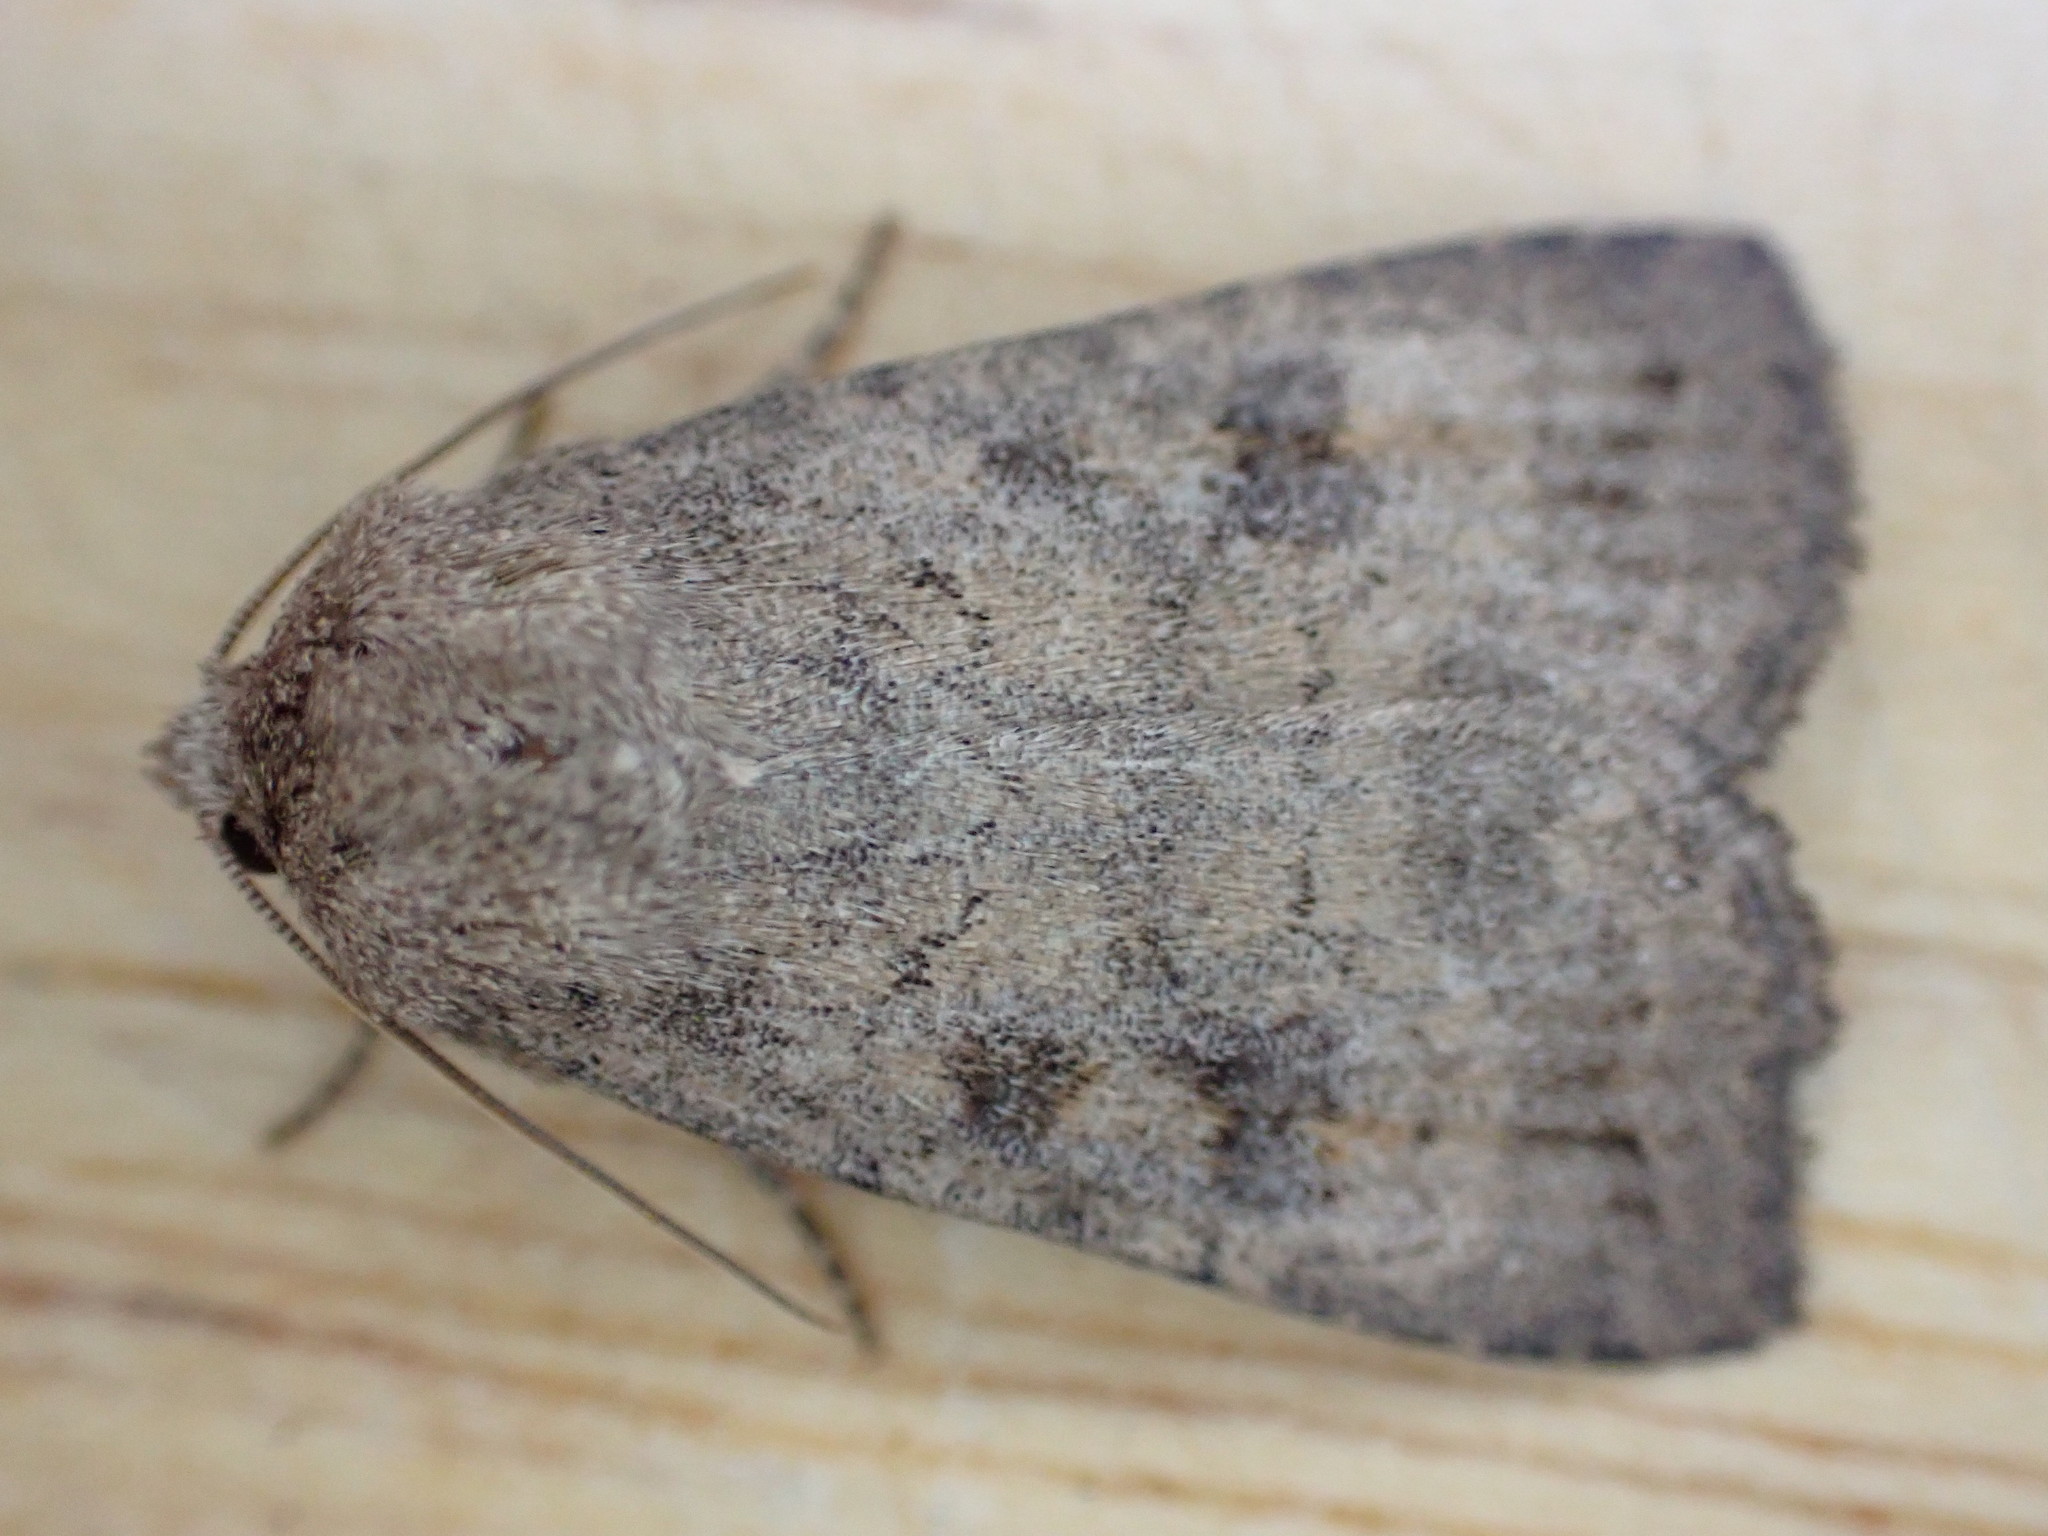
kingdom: Animalia
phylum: Arthropoda
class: Insecta
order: Lepidoptera
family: Noctuidae
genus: Caradrina
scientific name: Caradrina morpheus
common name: Mottled rustic
